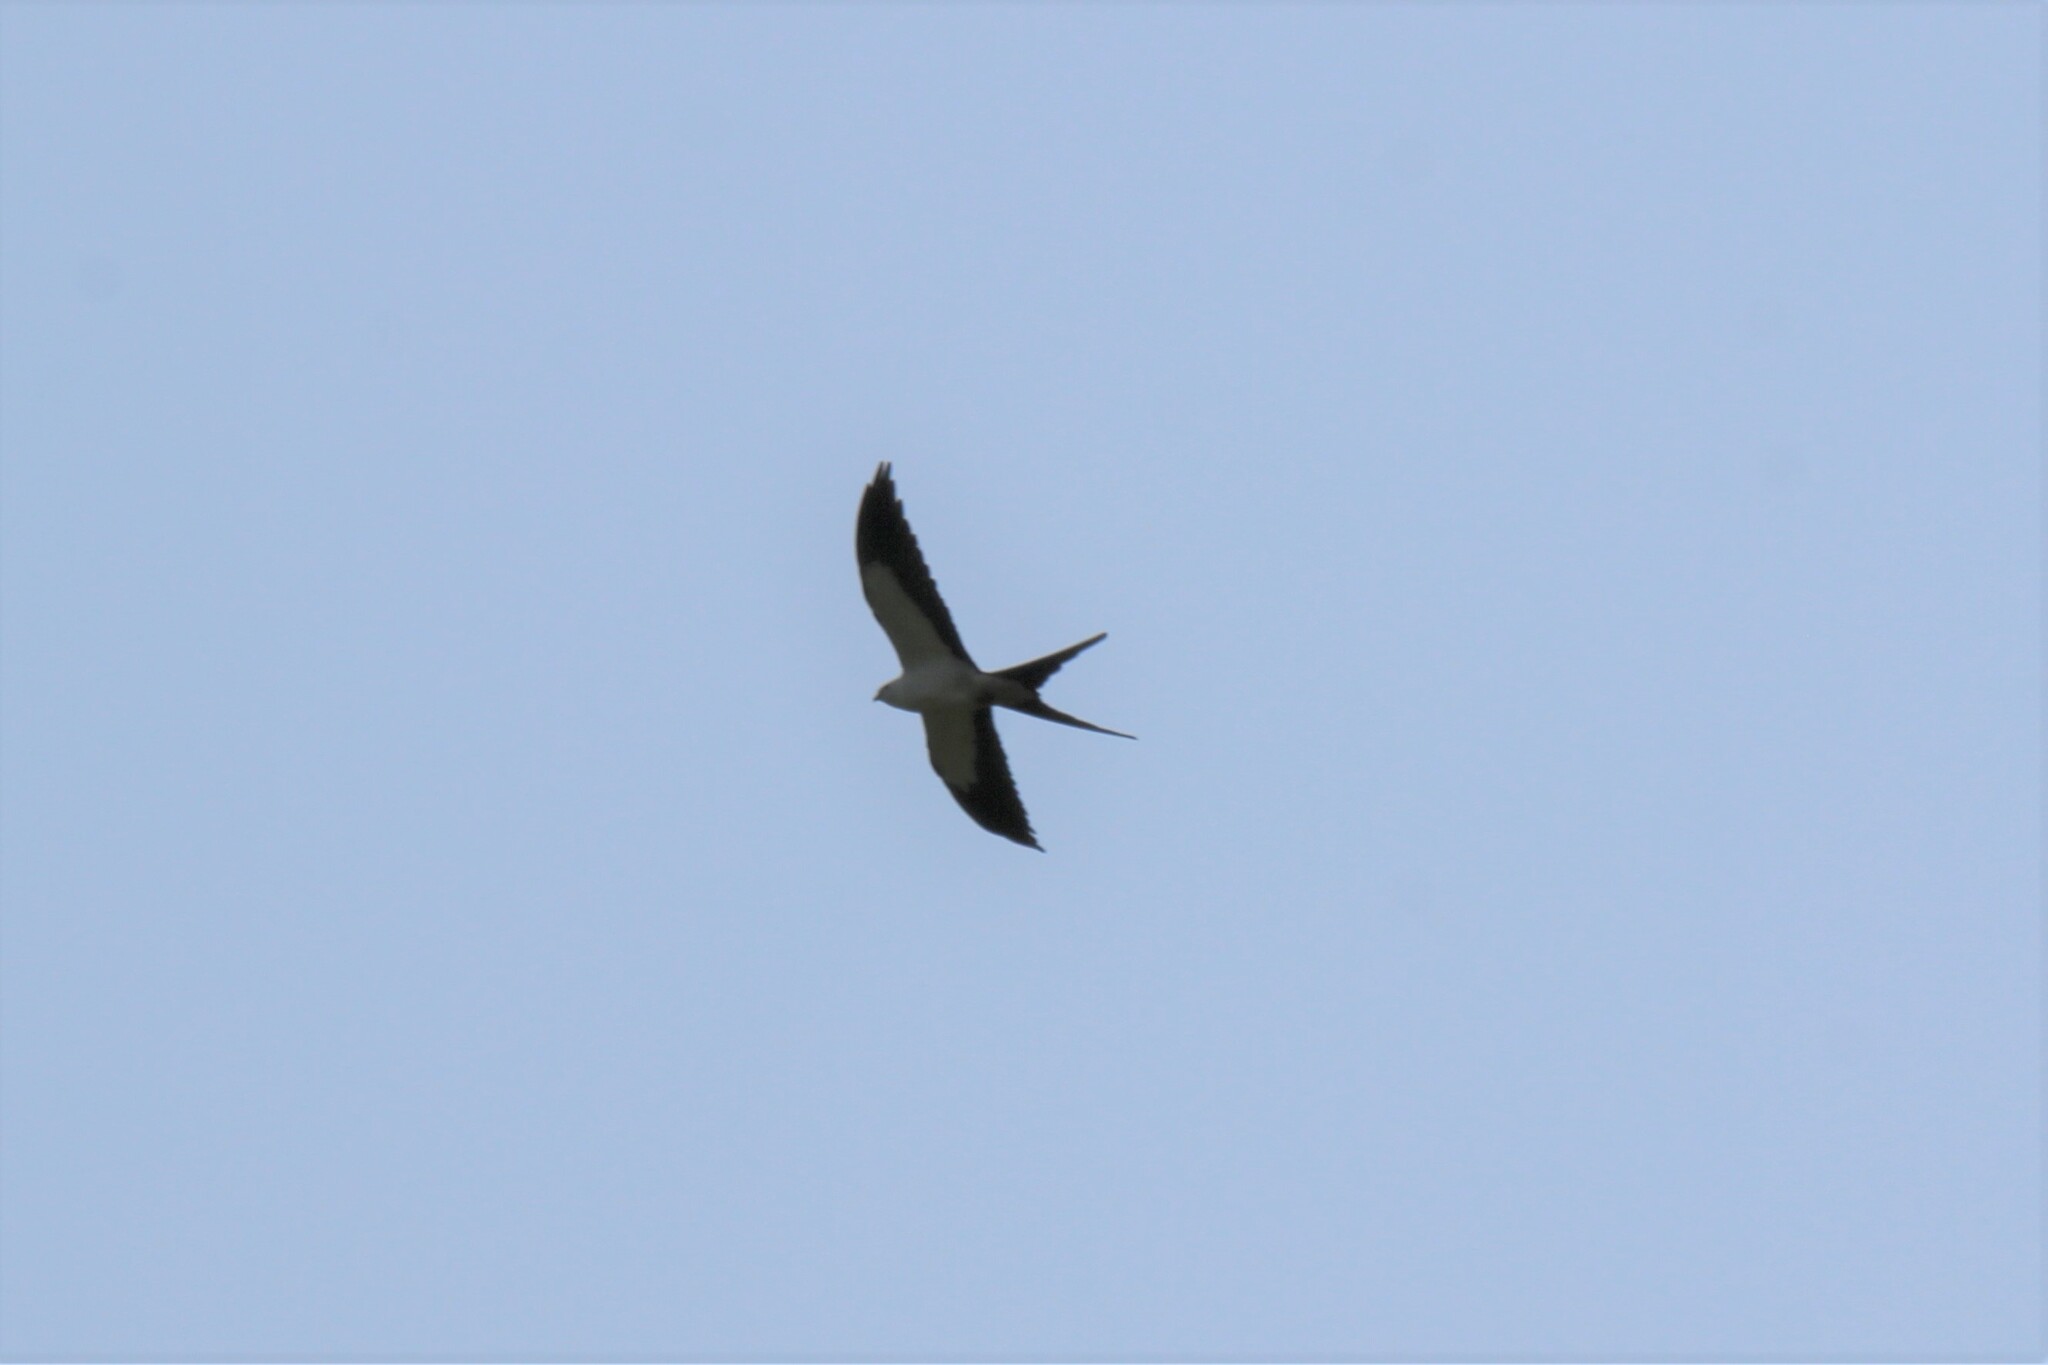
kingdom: Animalia
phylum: Chordata
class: Aves
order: Accipitriformes
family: Accipitridae
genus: Elanoides
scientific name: Elanoides forficatus
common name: Swallow-tailed kite
